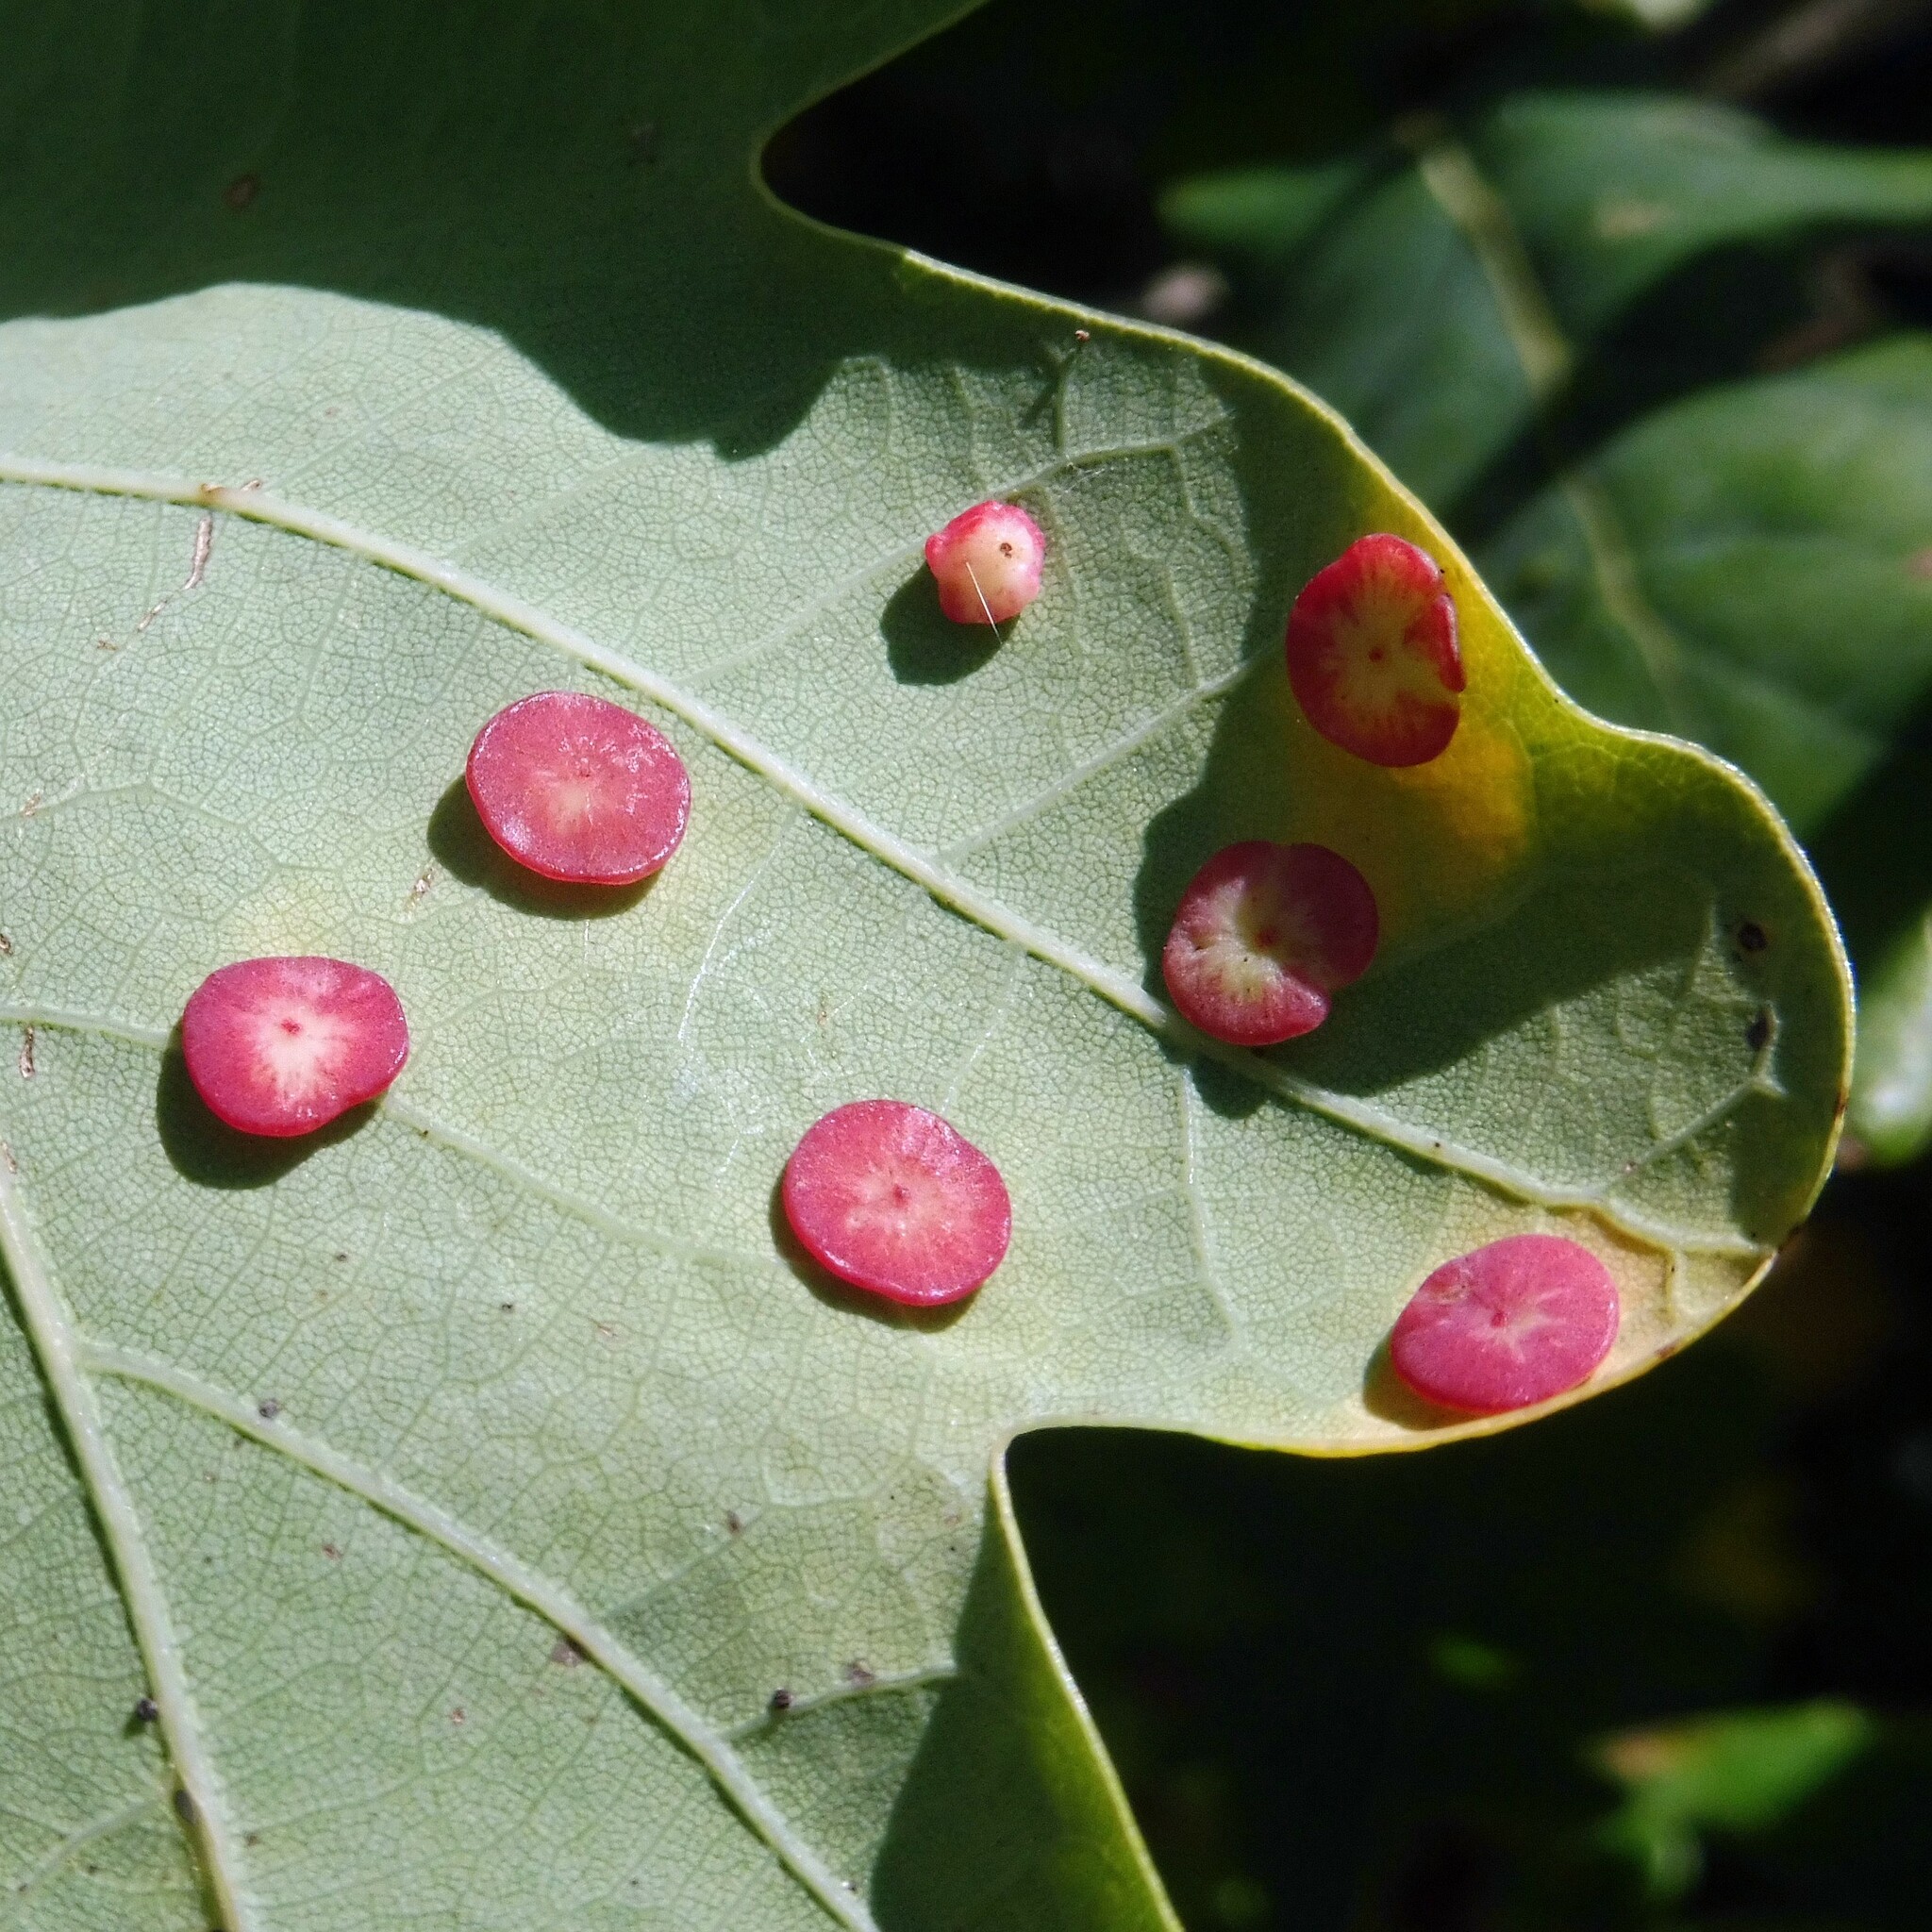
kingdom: Animalia
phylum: Arthropoda
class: Insecta
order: Hymenoptera
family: Cynipidae
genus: Neuroterus
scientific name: Neuroterus albipes
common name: Smooth spangle gall
